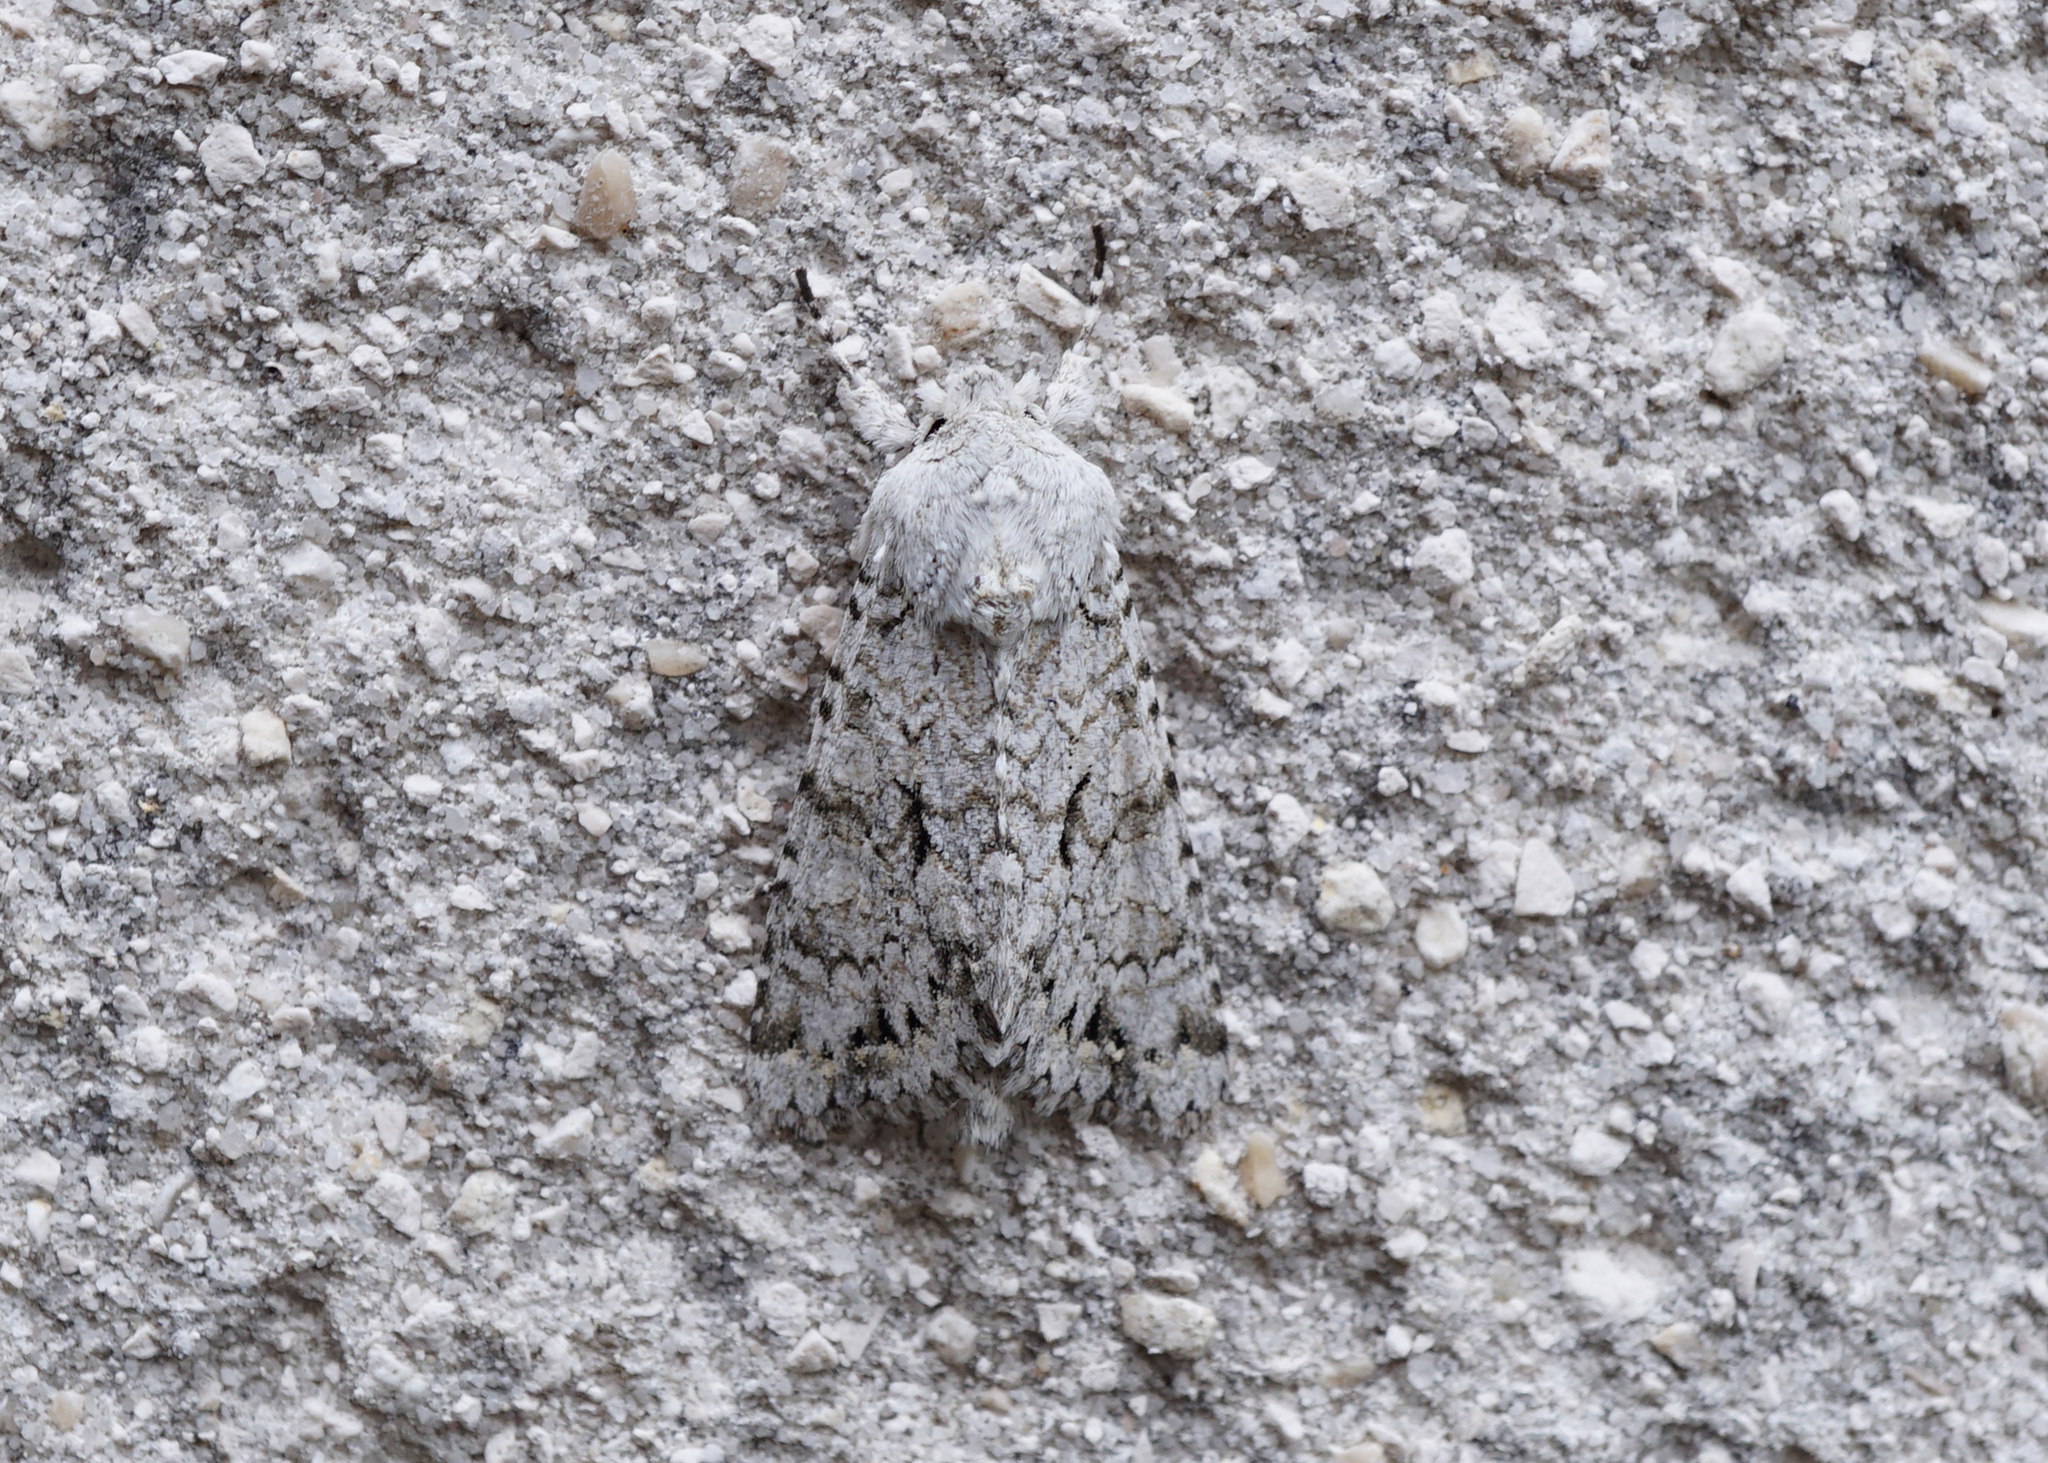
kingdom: Animalia
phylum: Arthropoda
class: Insecta
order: Lepidoptera
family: Noctuidae
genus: Antitype
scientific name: Antitype chi
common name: Grey chi
